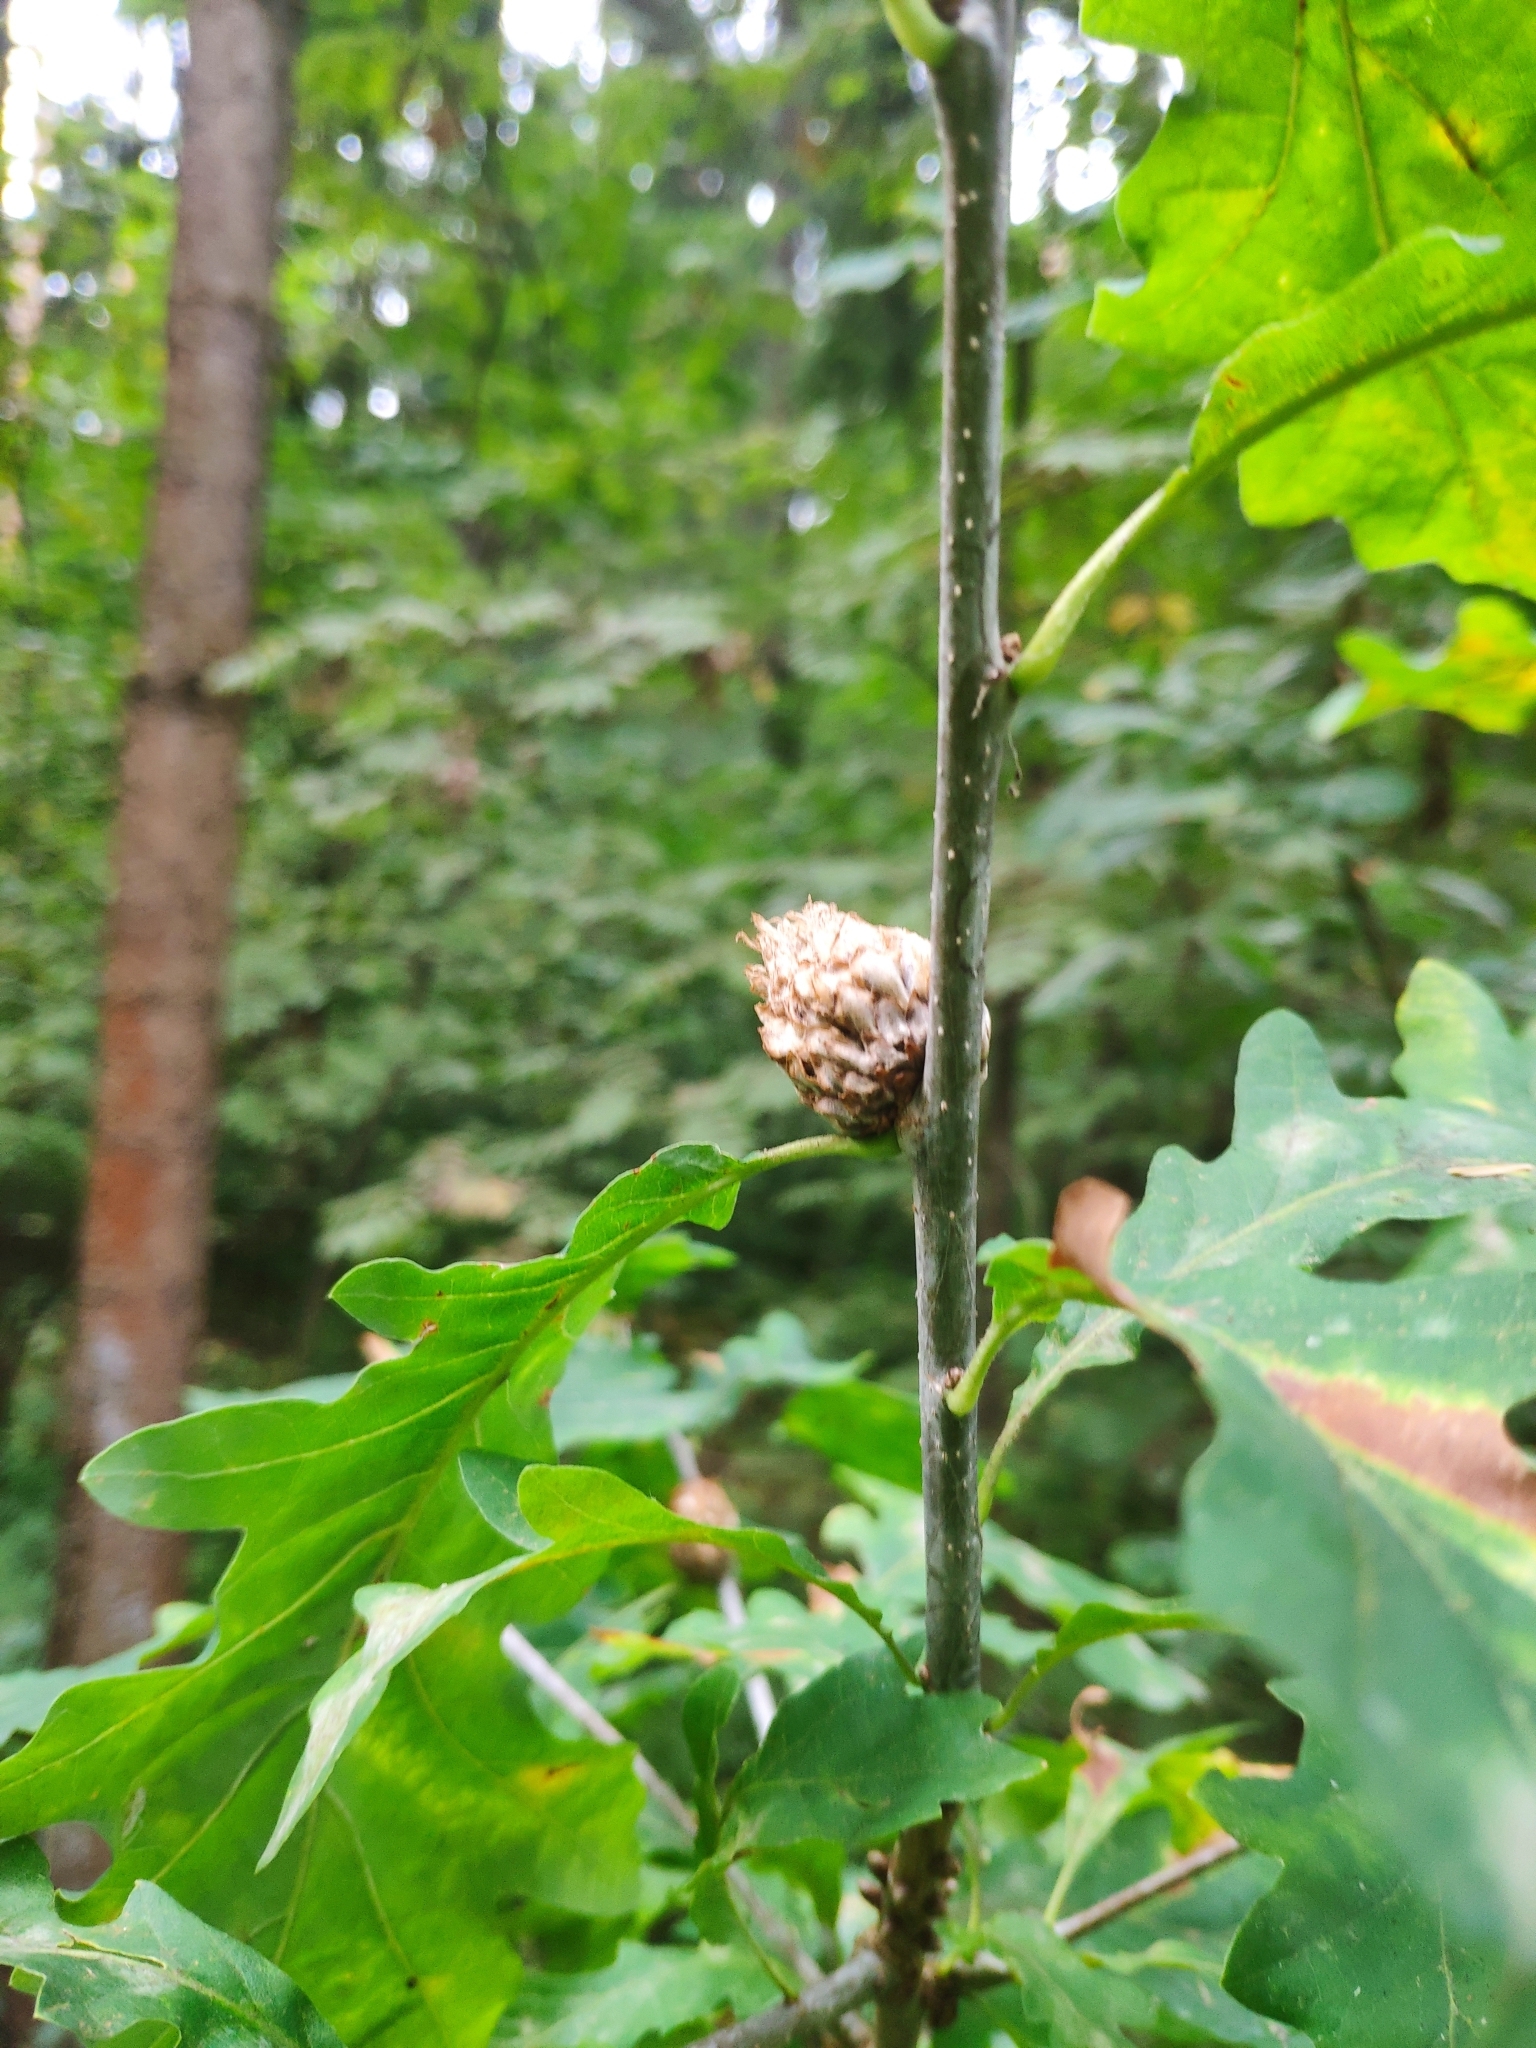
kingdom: Animalia
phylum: Arthropoda
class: Insecta
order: Hymenoptera
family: Cynipidae
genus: Andricus
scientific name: Andricus foecundatrix
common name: Artichoke gall
